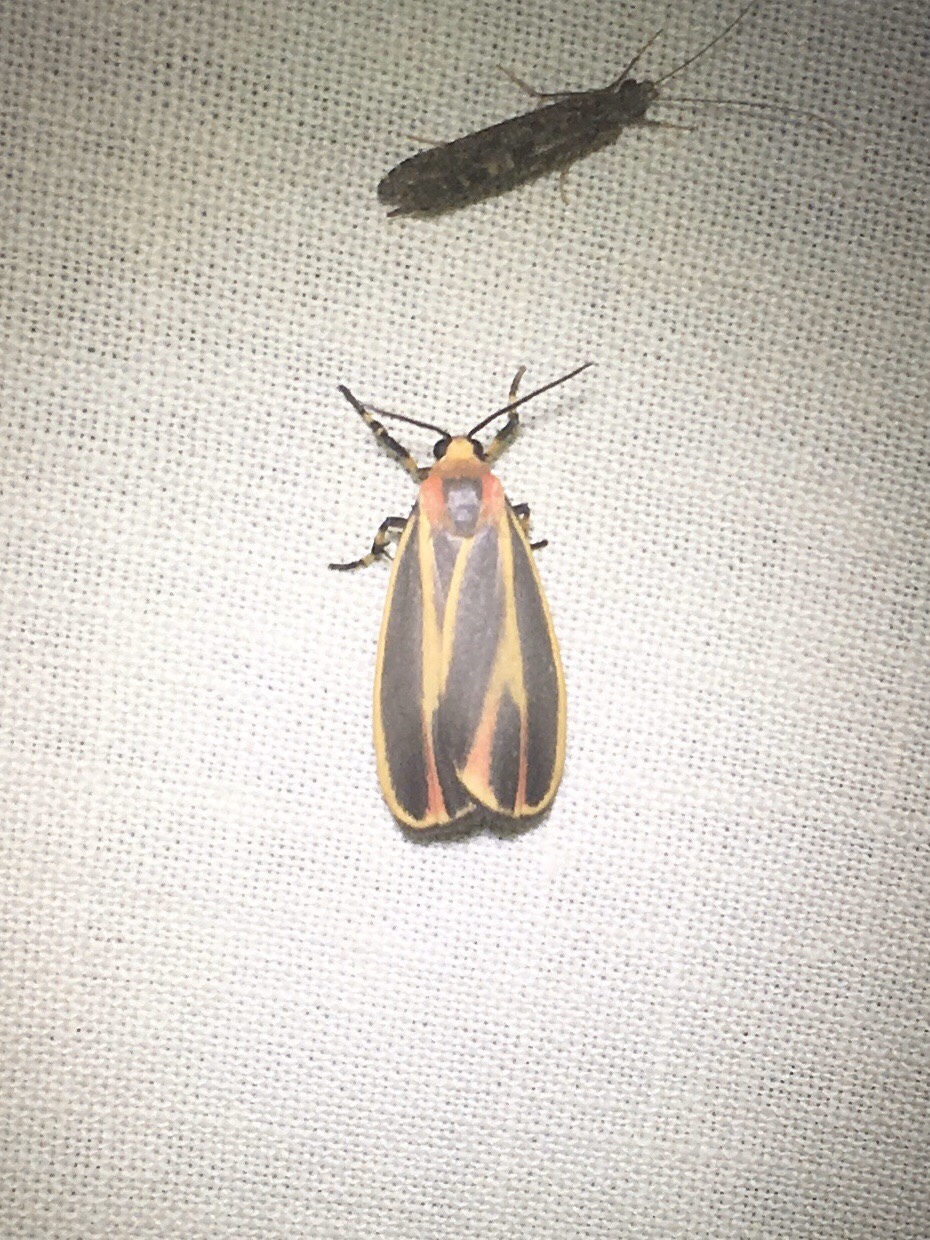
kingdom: Animalia
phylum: Arthropoda
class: Insecta
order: Lepidoptera
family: Erebidae
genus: Hypoprepia
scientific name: Hypoprepia fucosa
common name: Painted lichen moth
